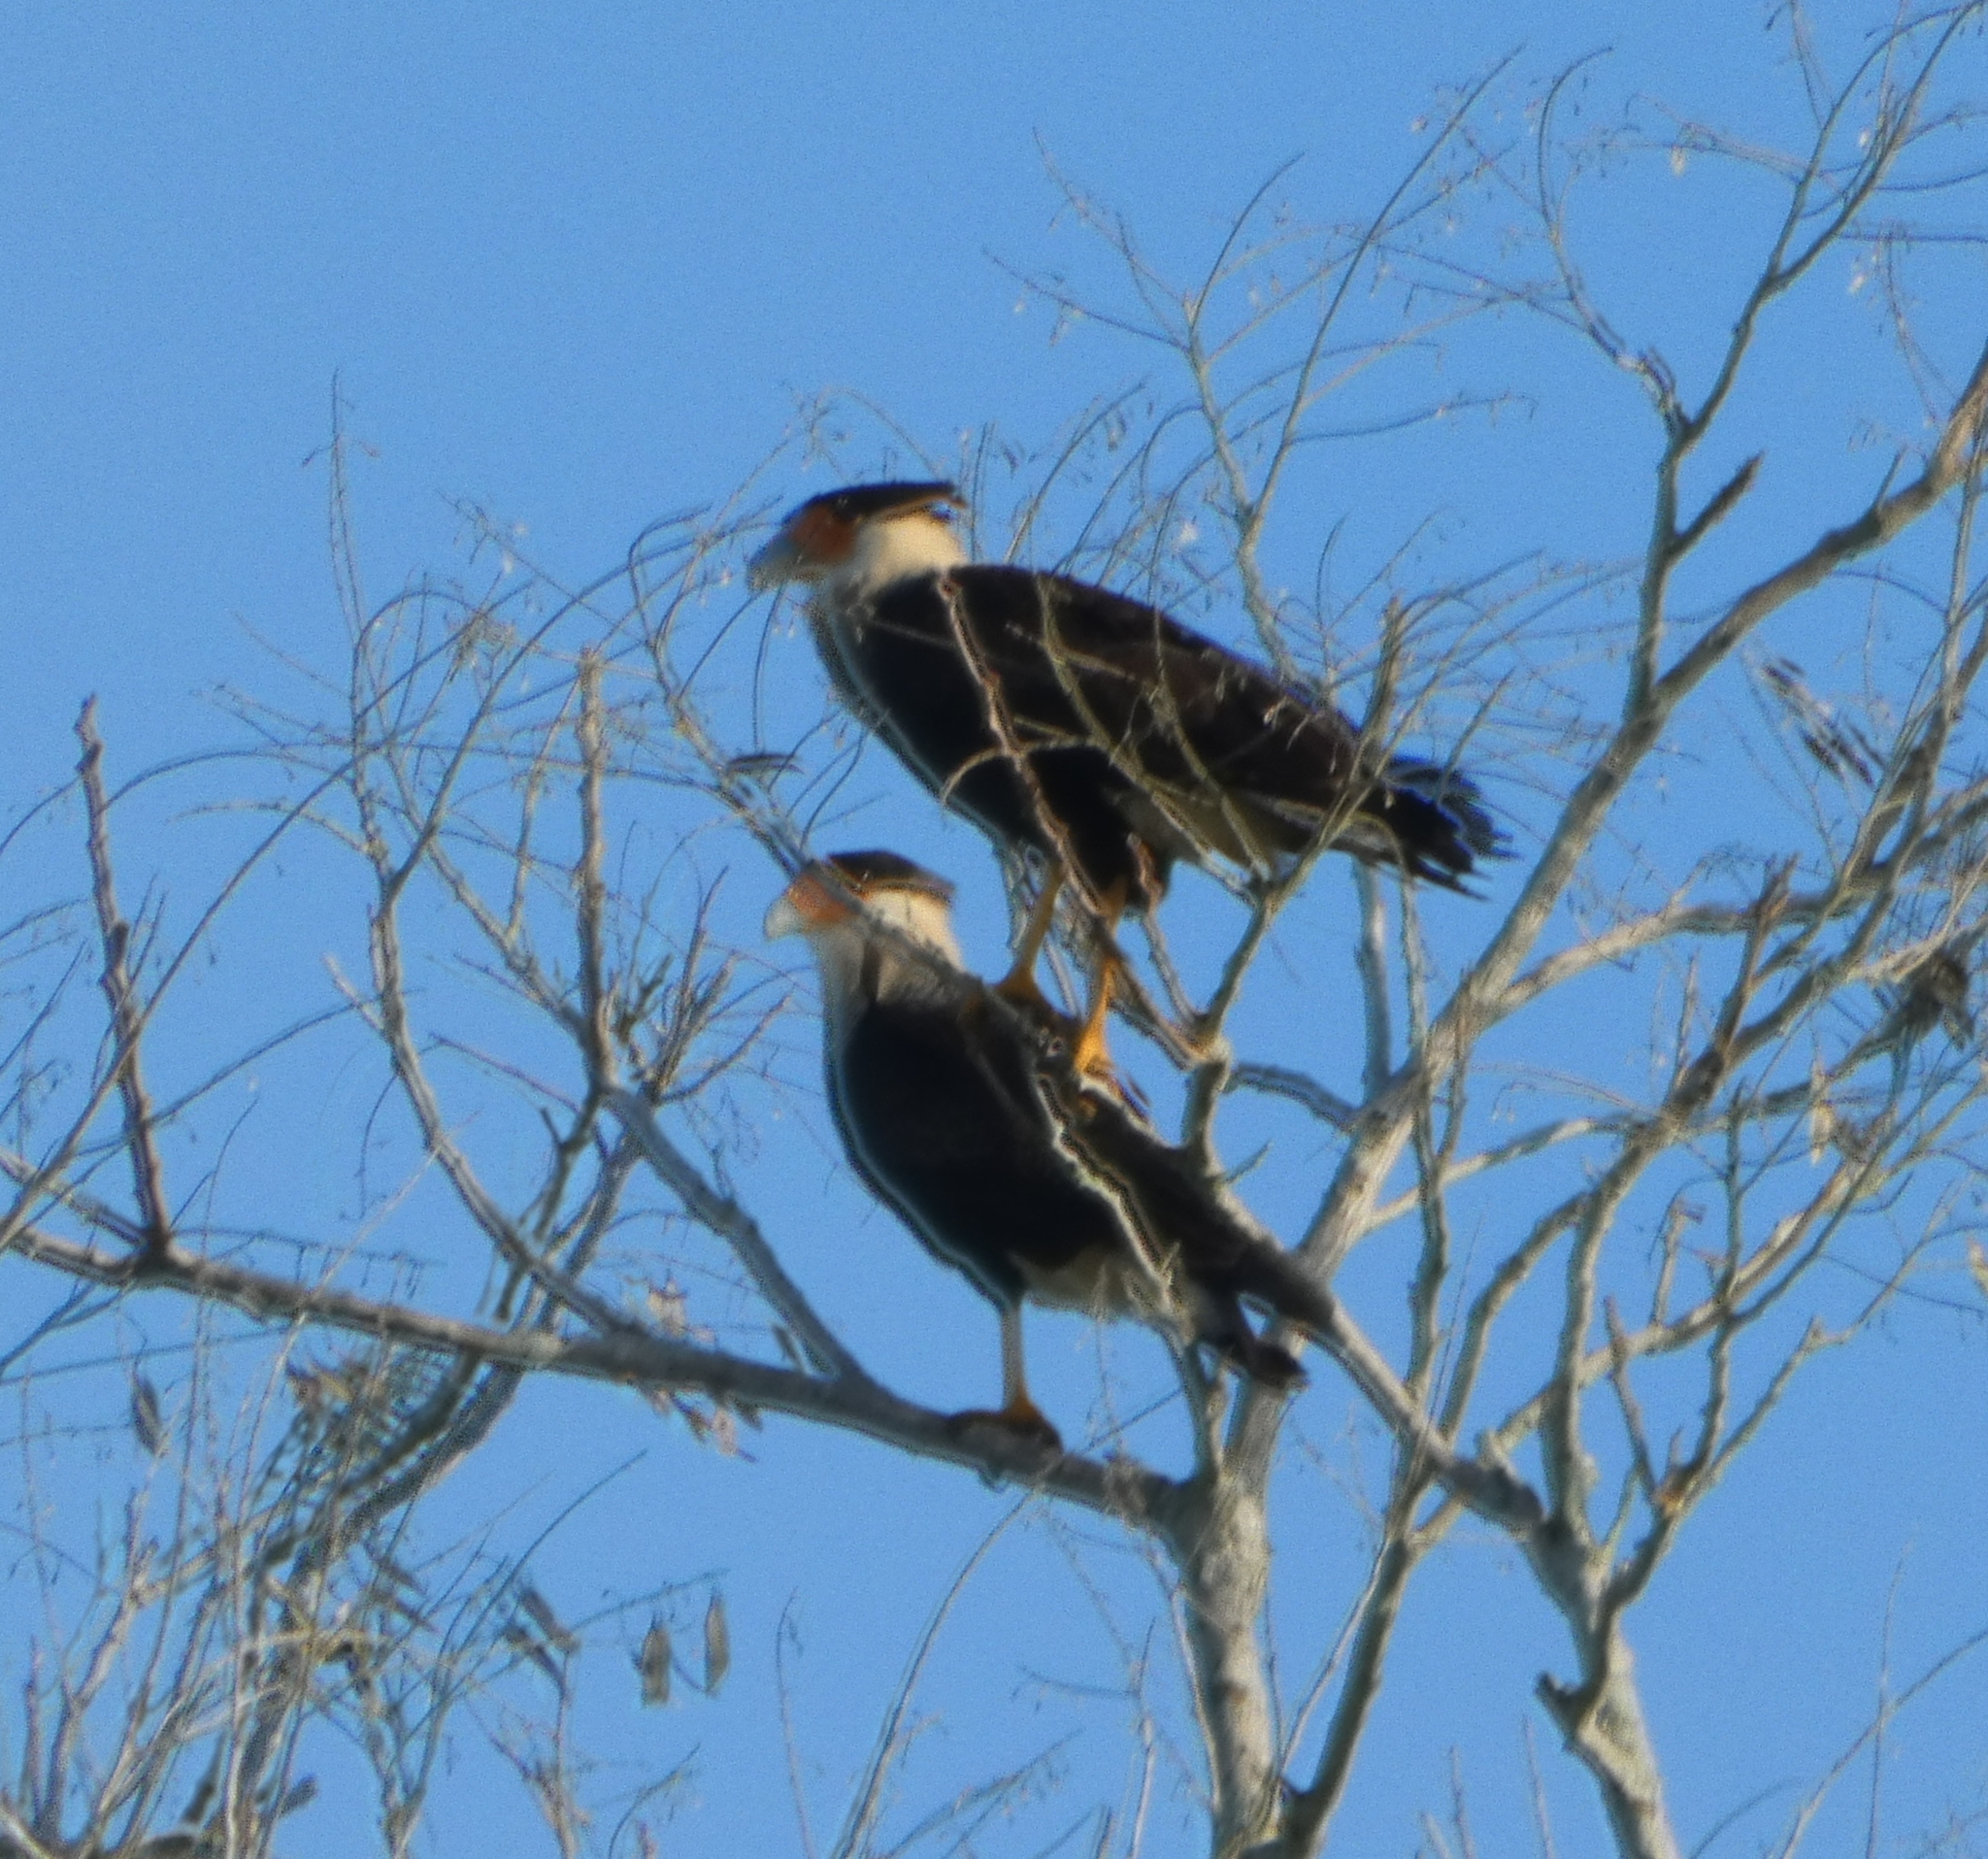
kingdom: Animalia
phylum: Chordata
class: Aves
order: Falconiformes
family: Falconidae
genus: Caracara
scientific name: Caracara plancus
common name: Southern caracara
